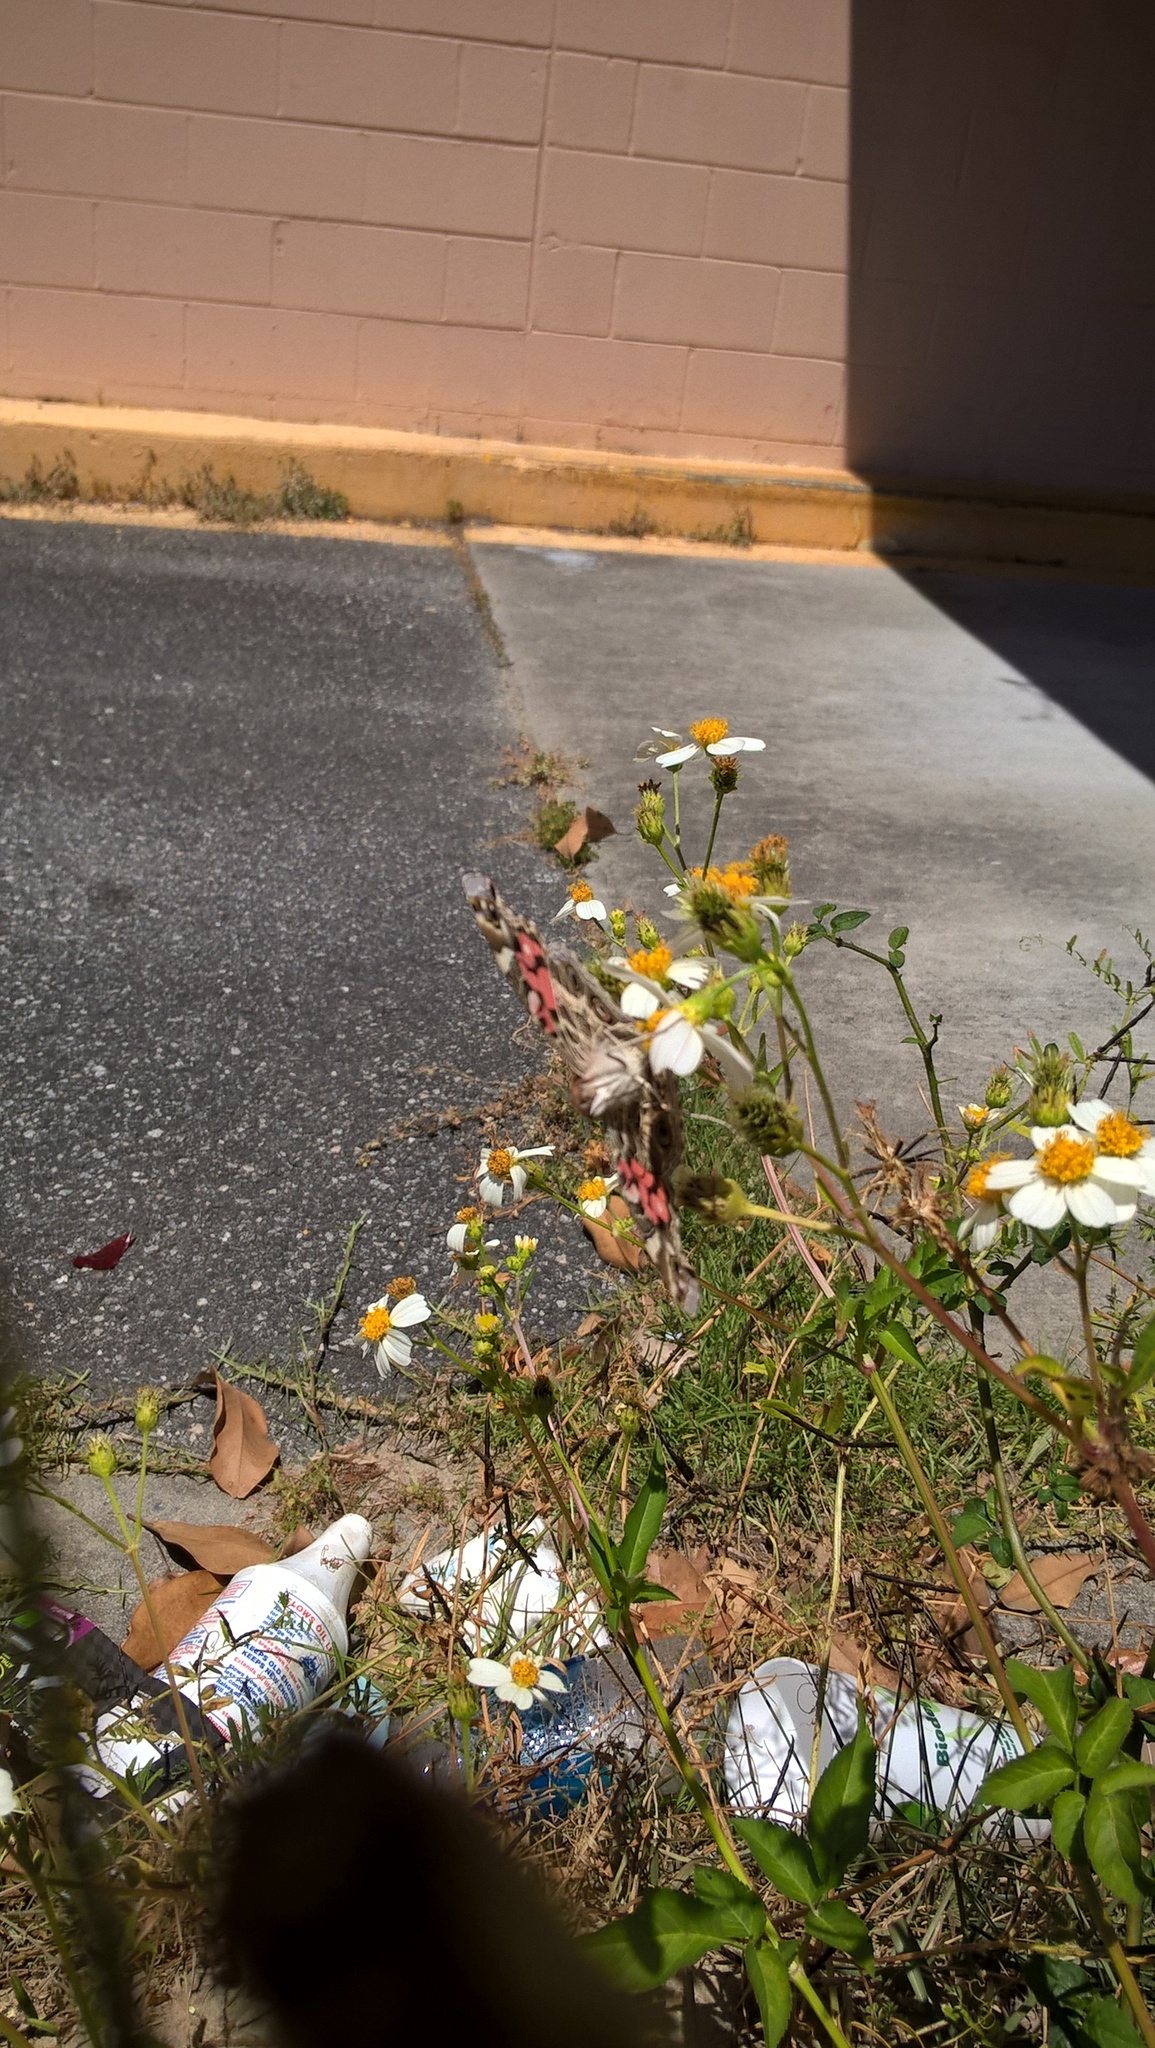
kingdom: Animalia
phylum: Arthropoda
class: Insecta
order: Lepidoptera
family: Nymphalidae
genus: Vanessa
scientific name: Vanessa virginiensis
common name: American lady
